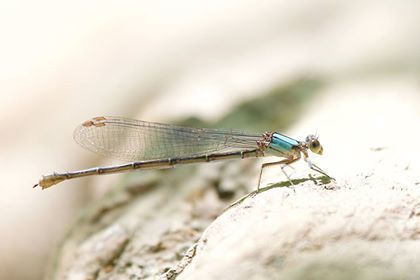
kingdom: Animalia
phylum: Arthropoda
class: Insecta
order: Odonata
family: Coenagrionidae
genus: Argia
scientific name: Argia moesta
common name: Powdered dancer
